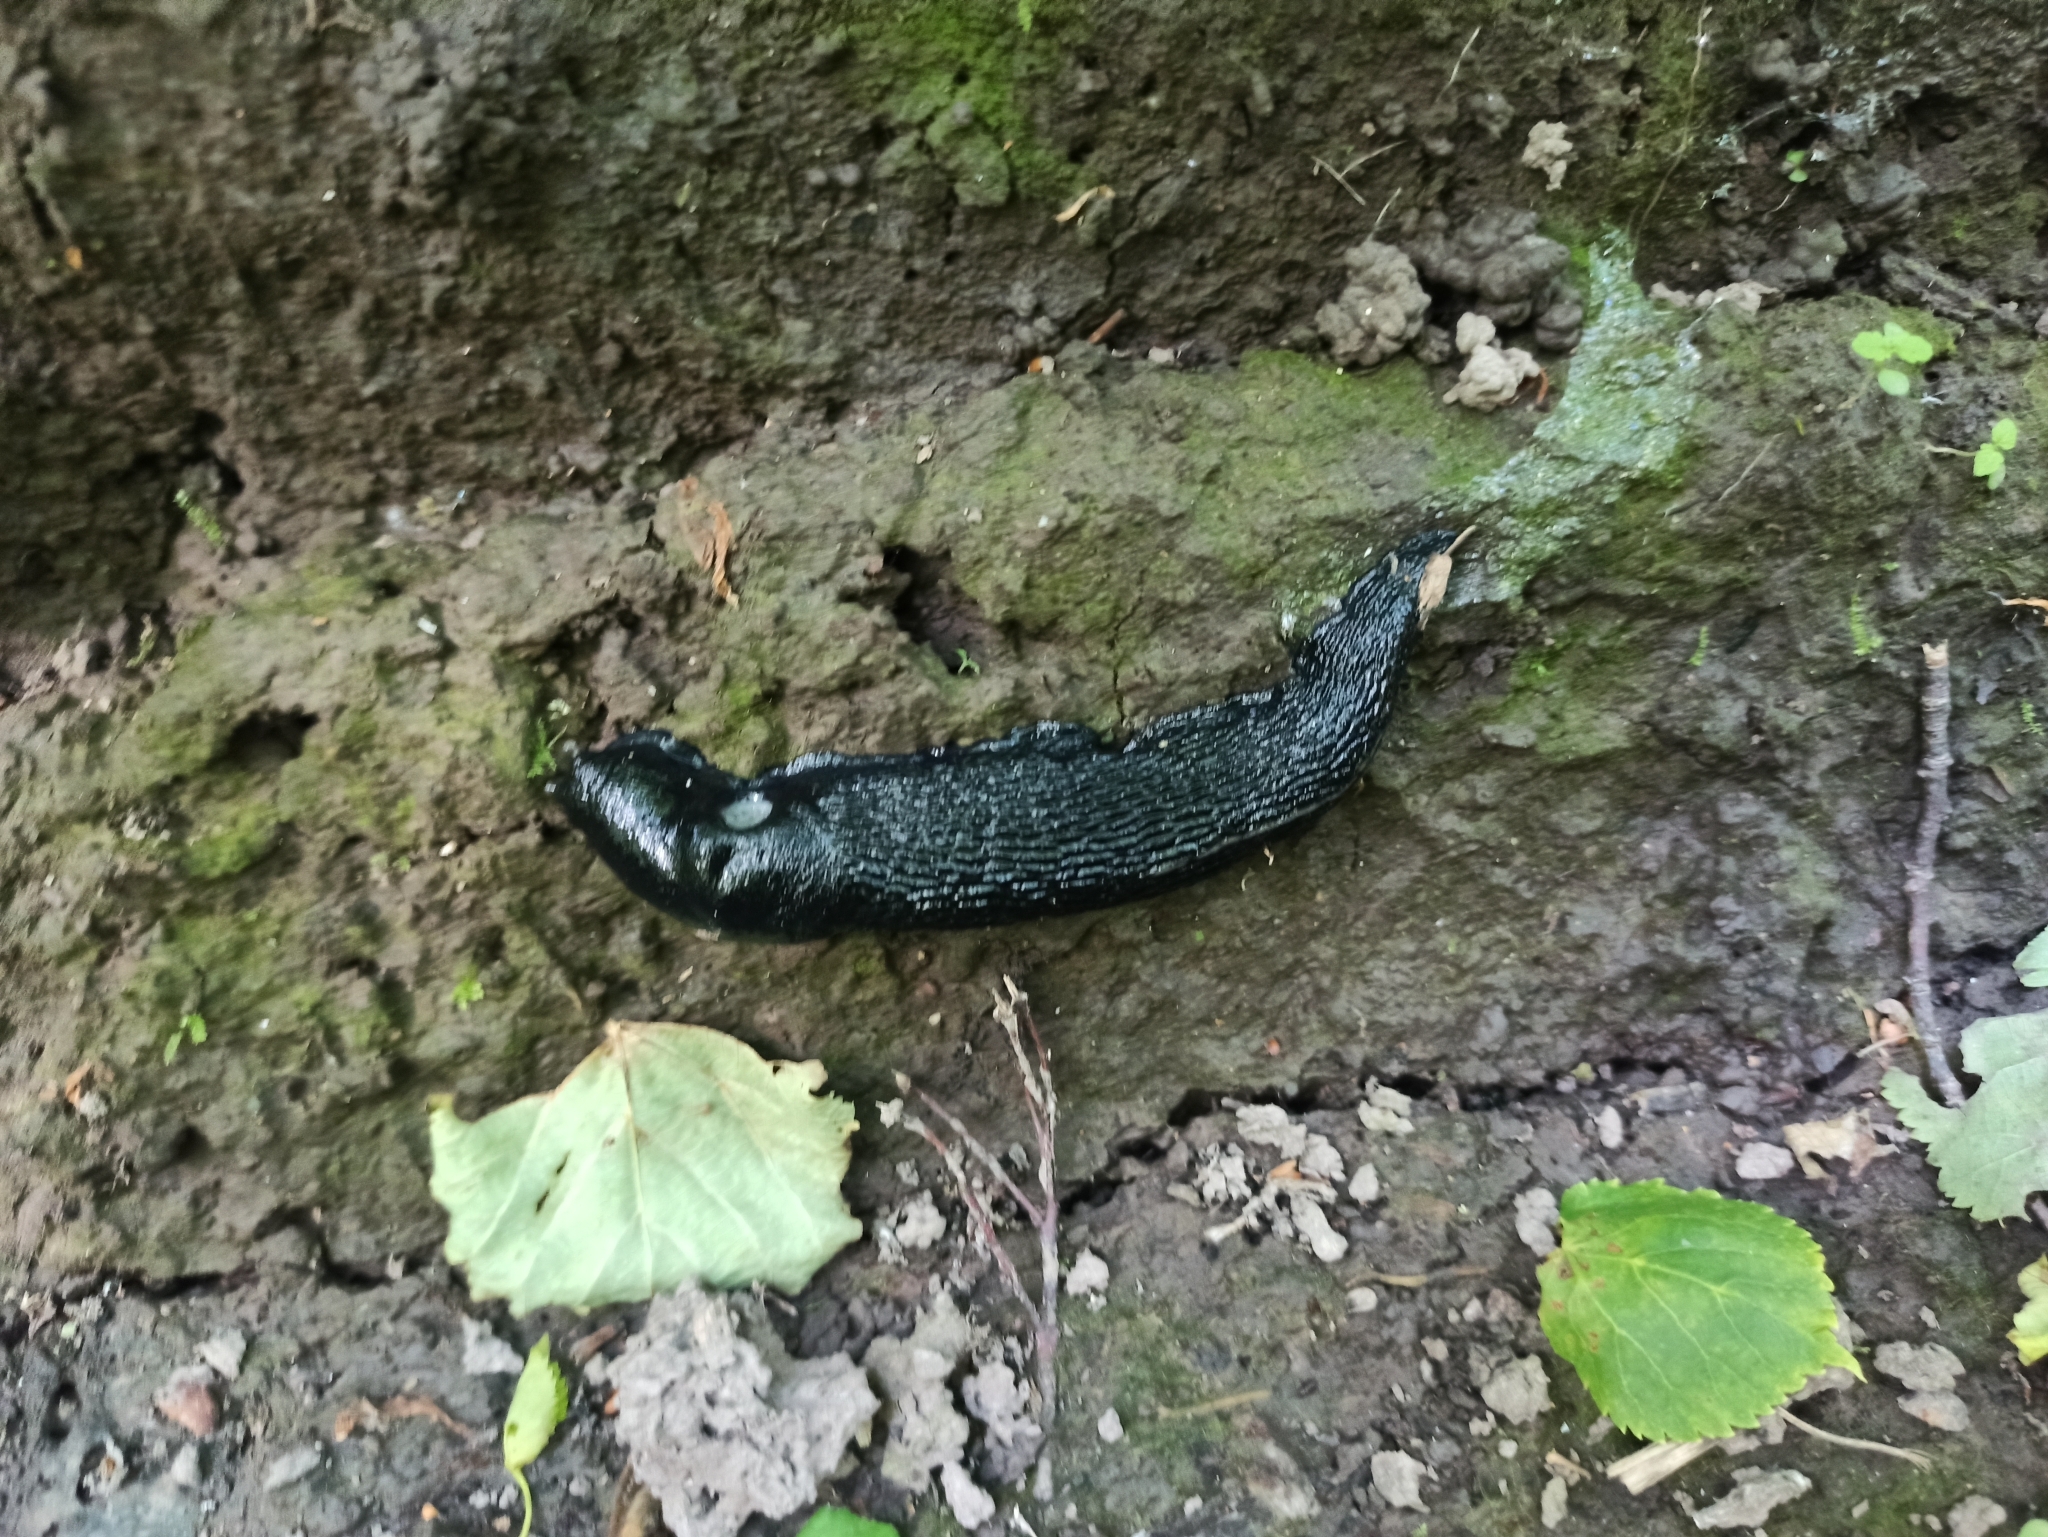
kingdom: Animalia
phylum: Mollusca
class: Gastropoda
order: Stylommatophora
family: Limacidae
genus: Limax
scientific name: Limax cinereoniger
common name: Ash-black slug
